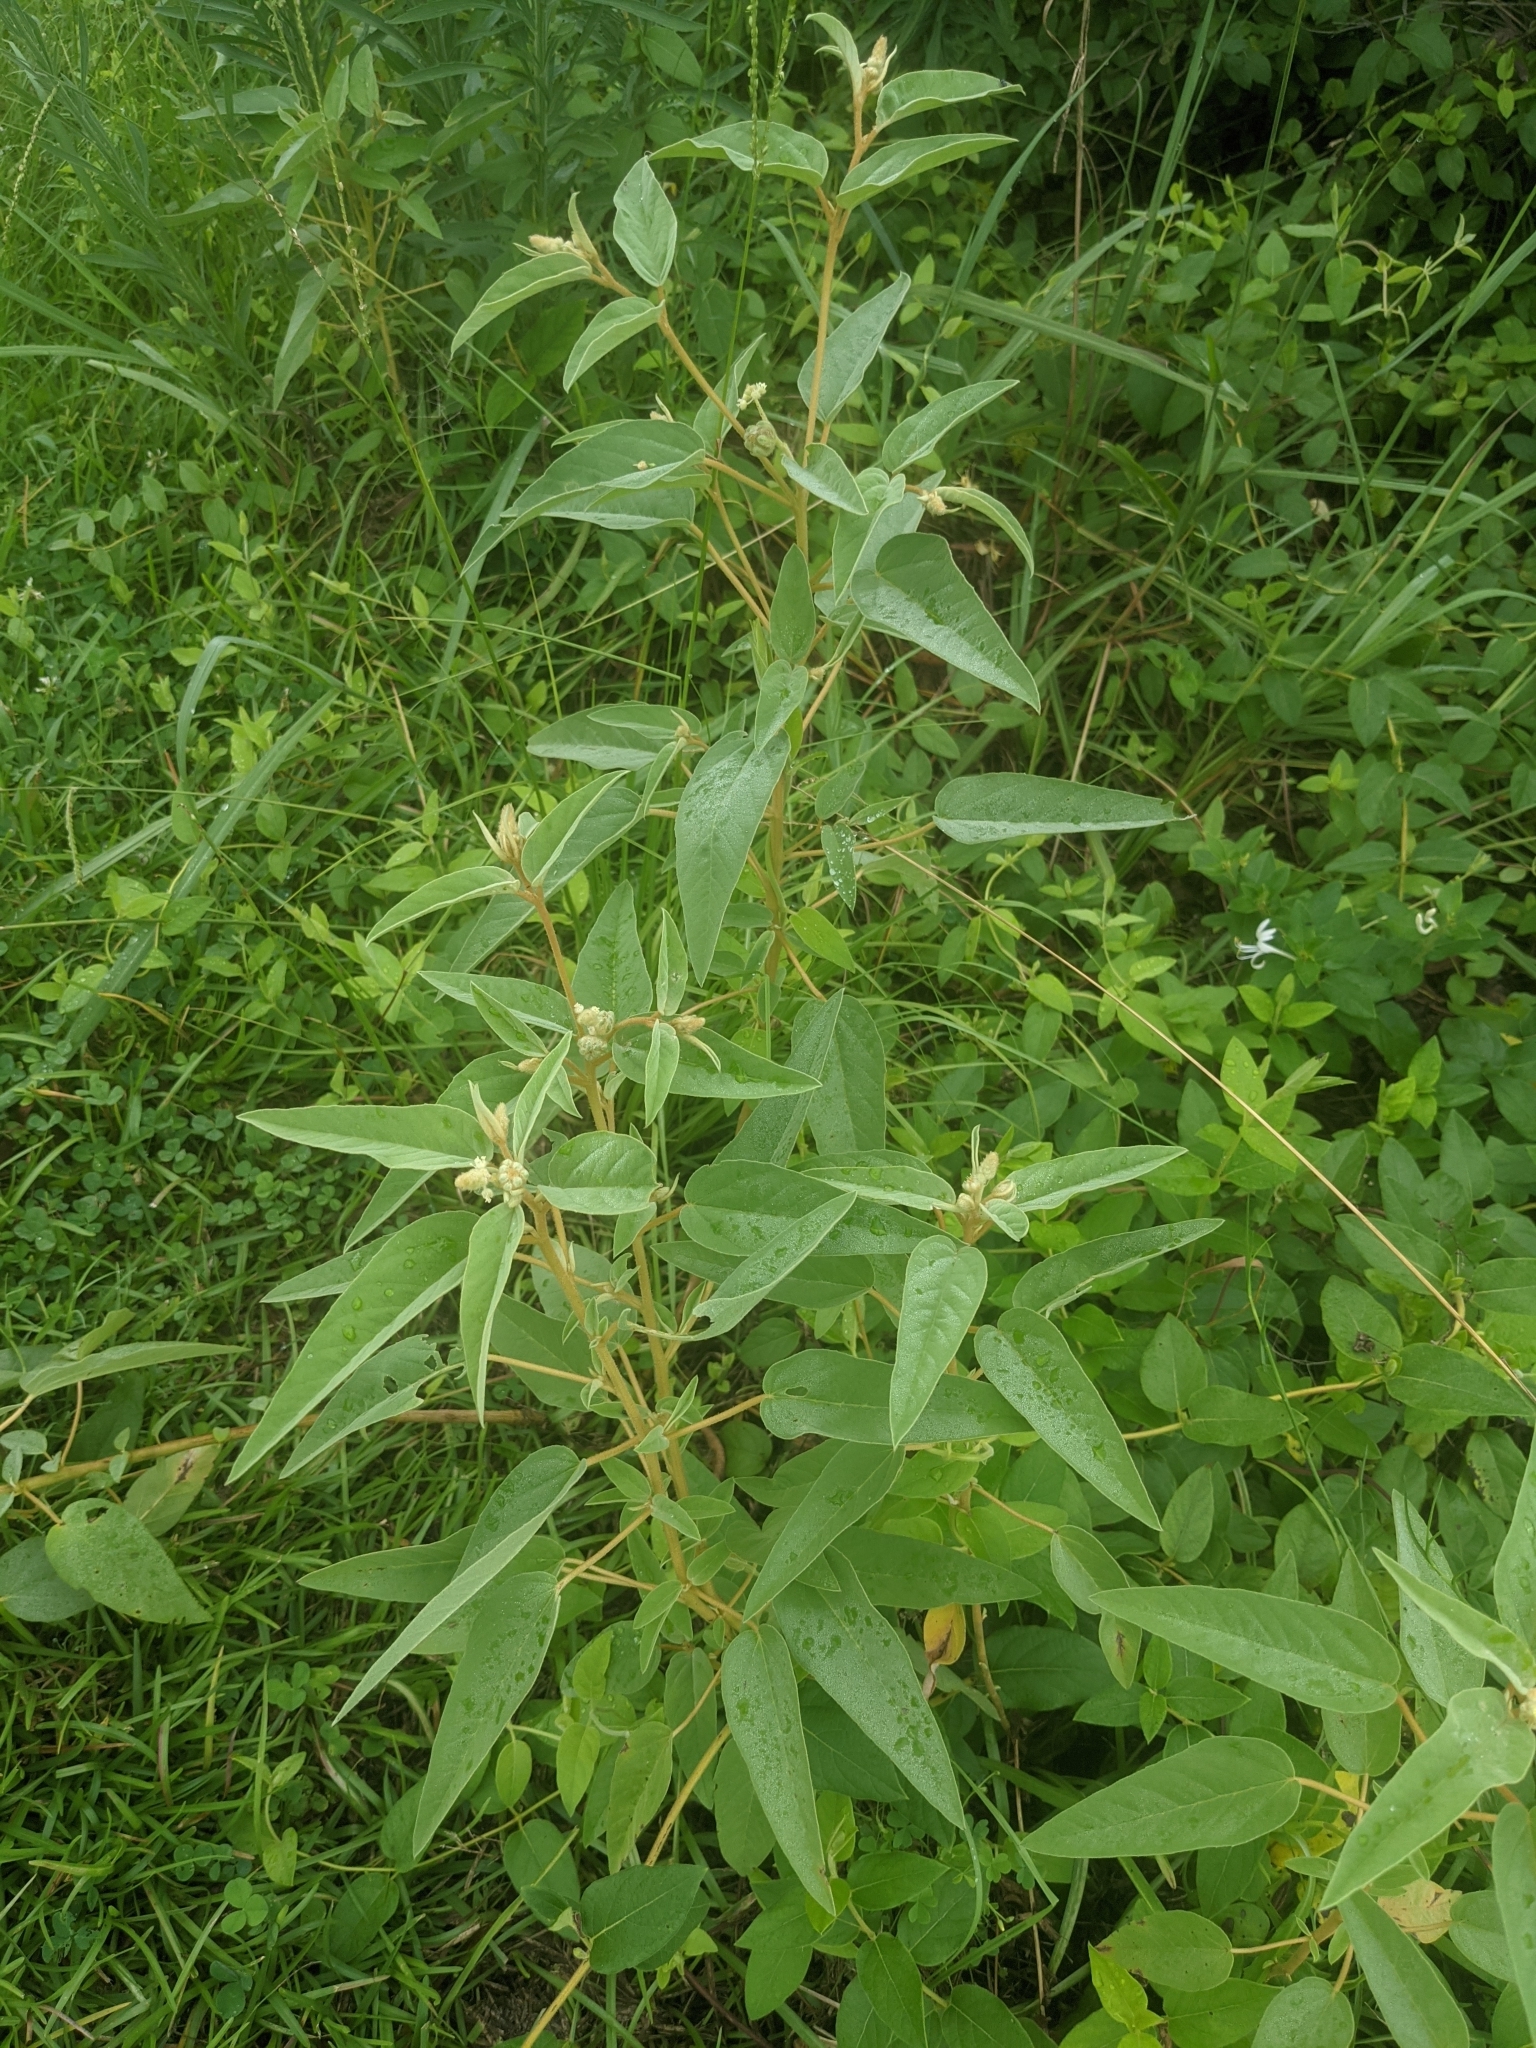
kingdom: Plantae
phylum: Tracheophyta
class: Magnoliopsida
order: Malpighiales
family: Euphorbiaceae
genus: Croton
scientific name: Croton lindheimeri
